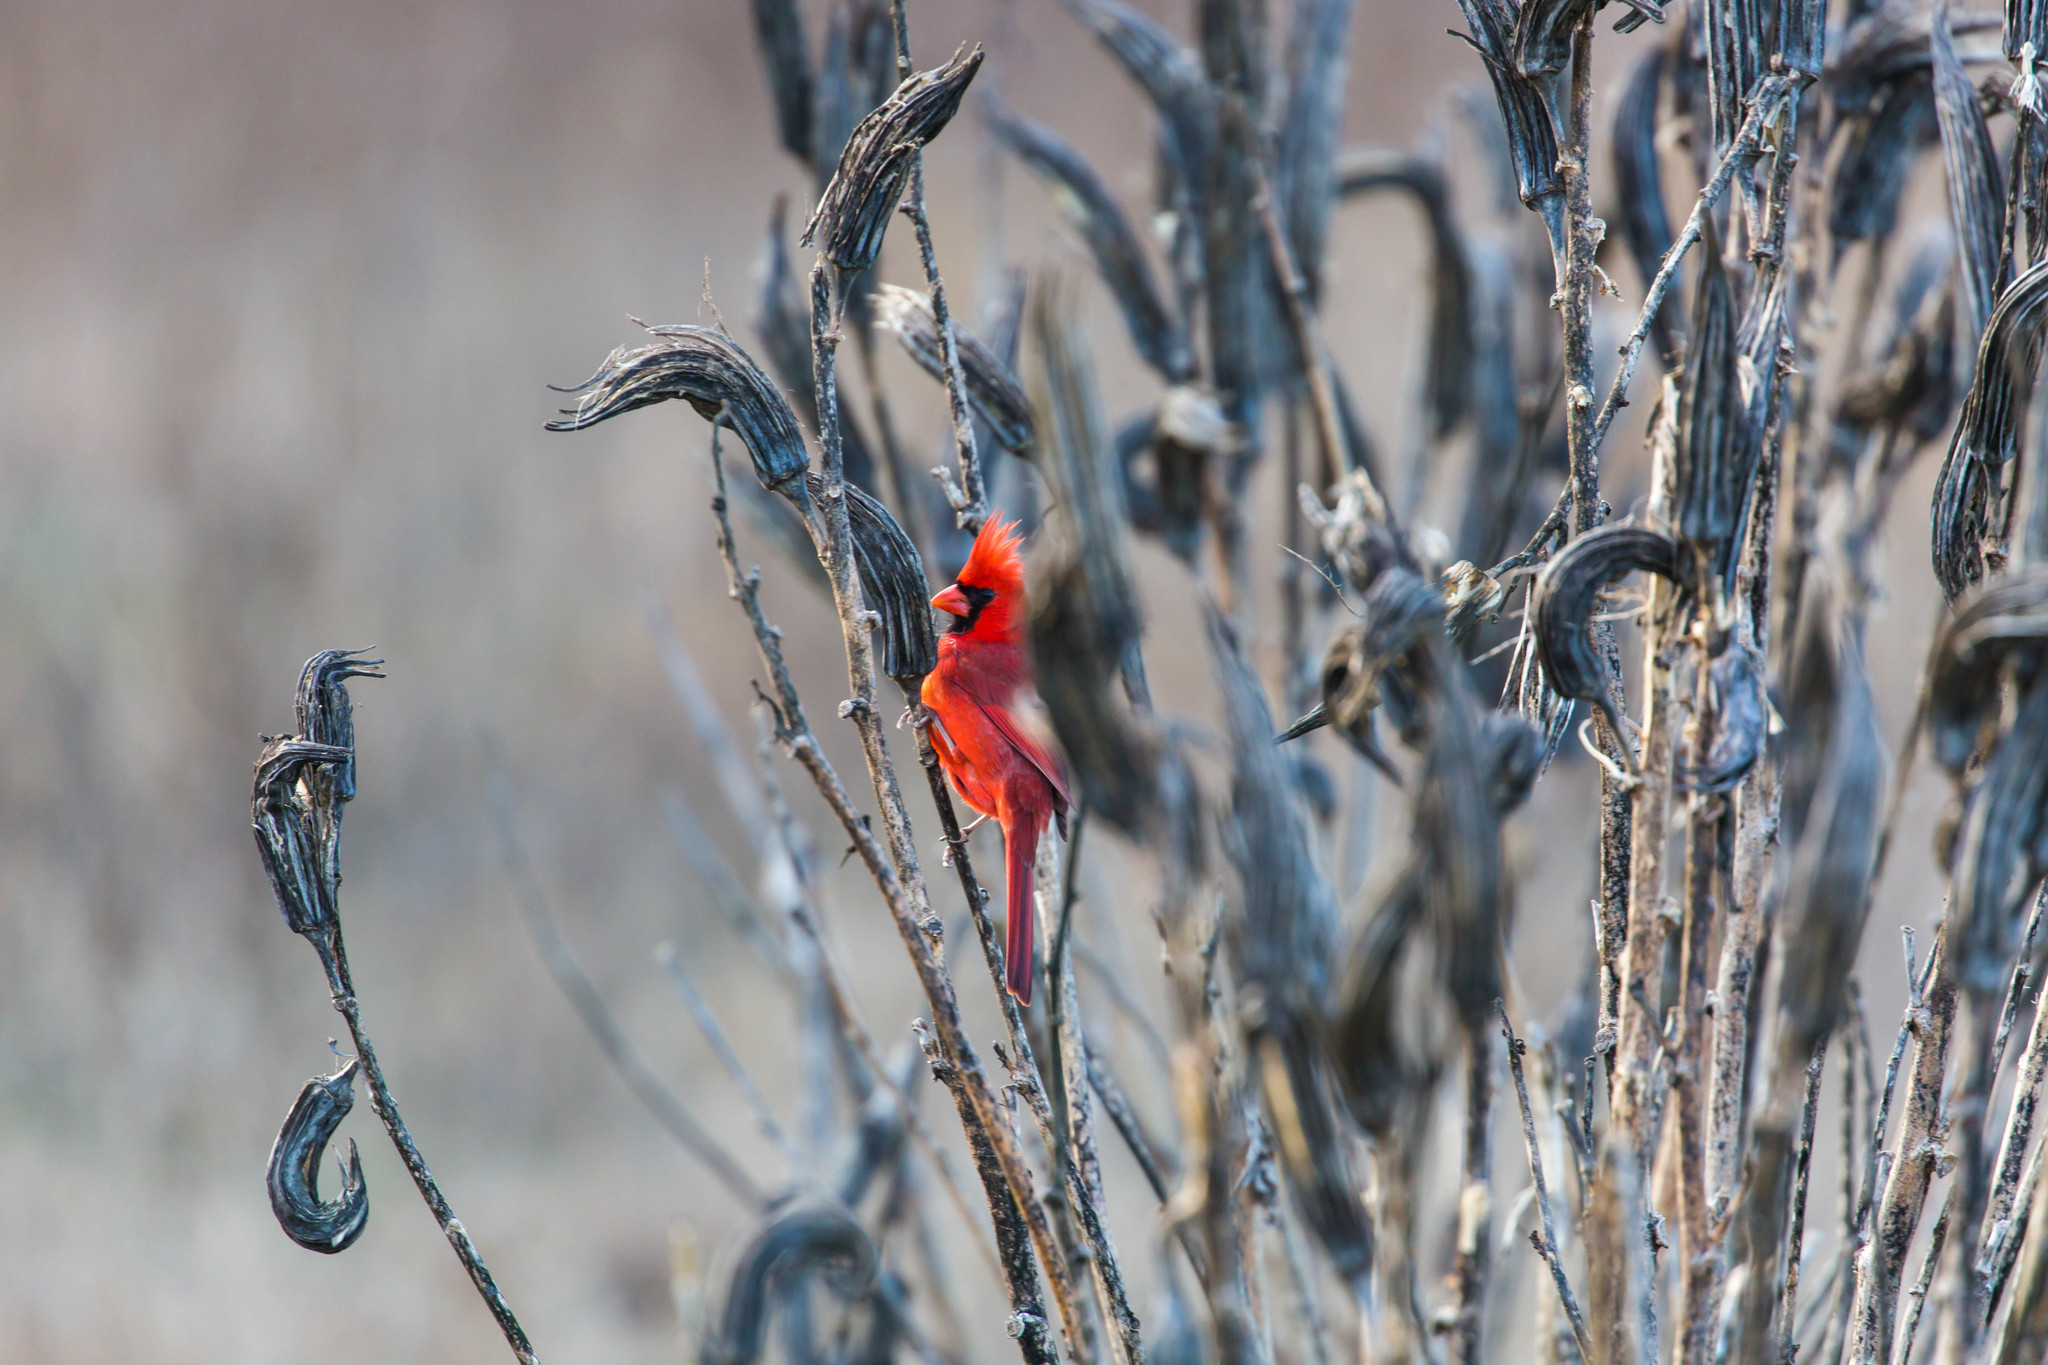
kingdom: Animalia
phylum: Chordata
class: Aves
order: Passeriformes
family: Cardinalidae
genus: Cardinalis
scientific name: Cardinalis cardinalis
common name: Northern cardinal
